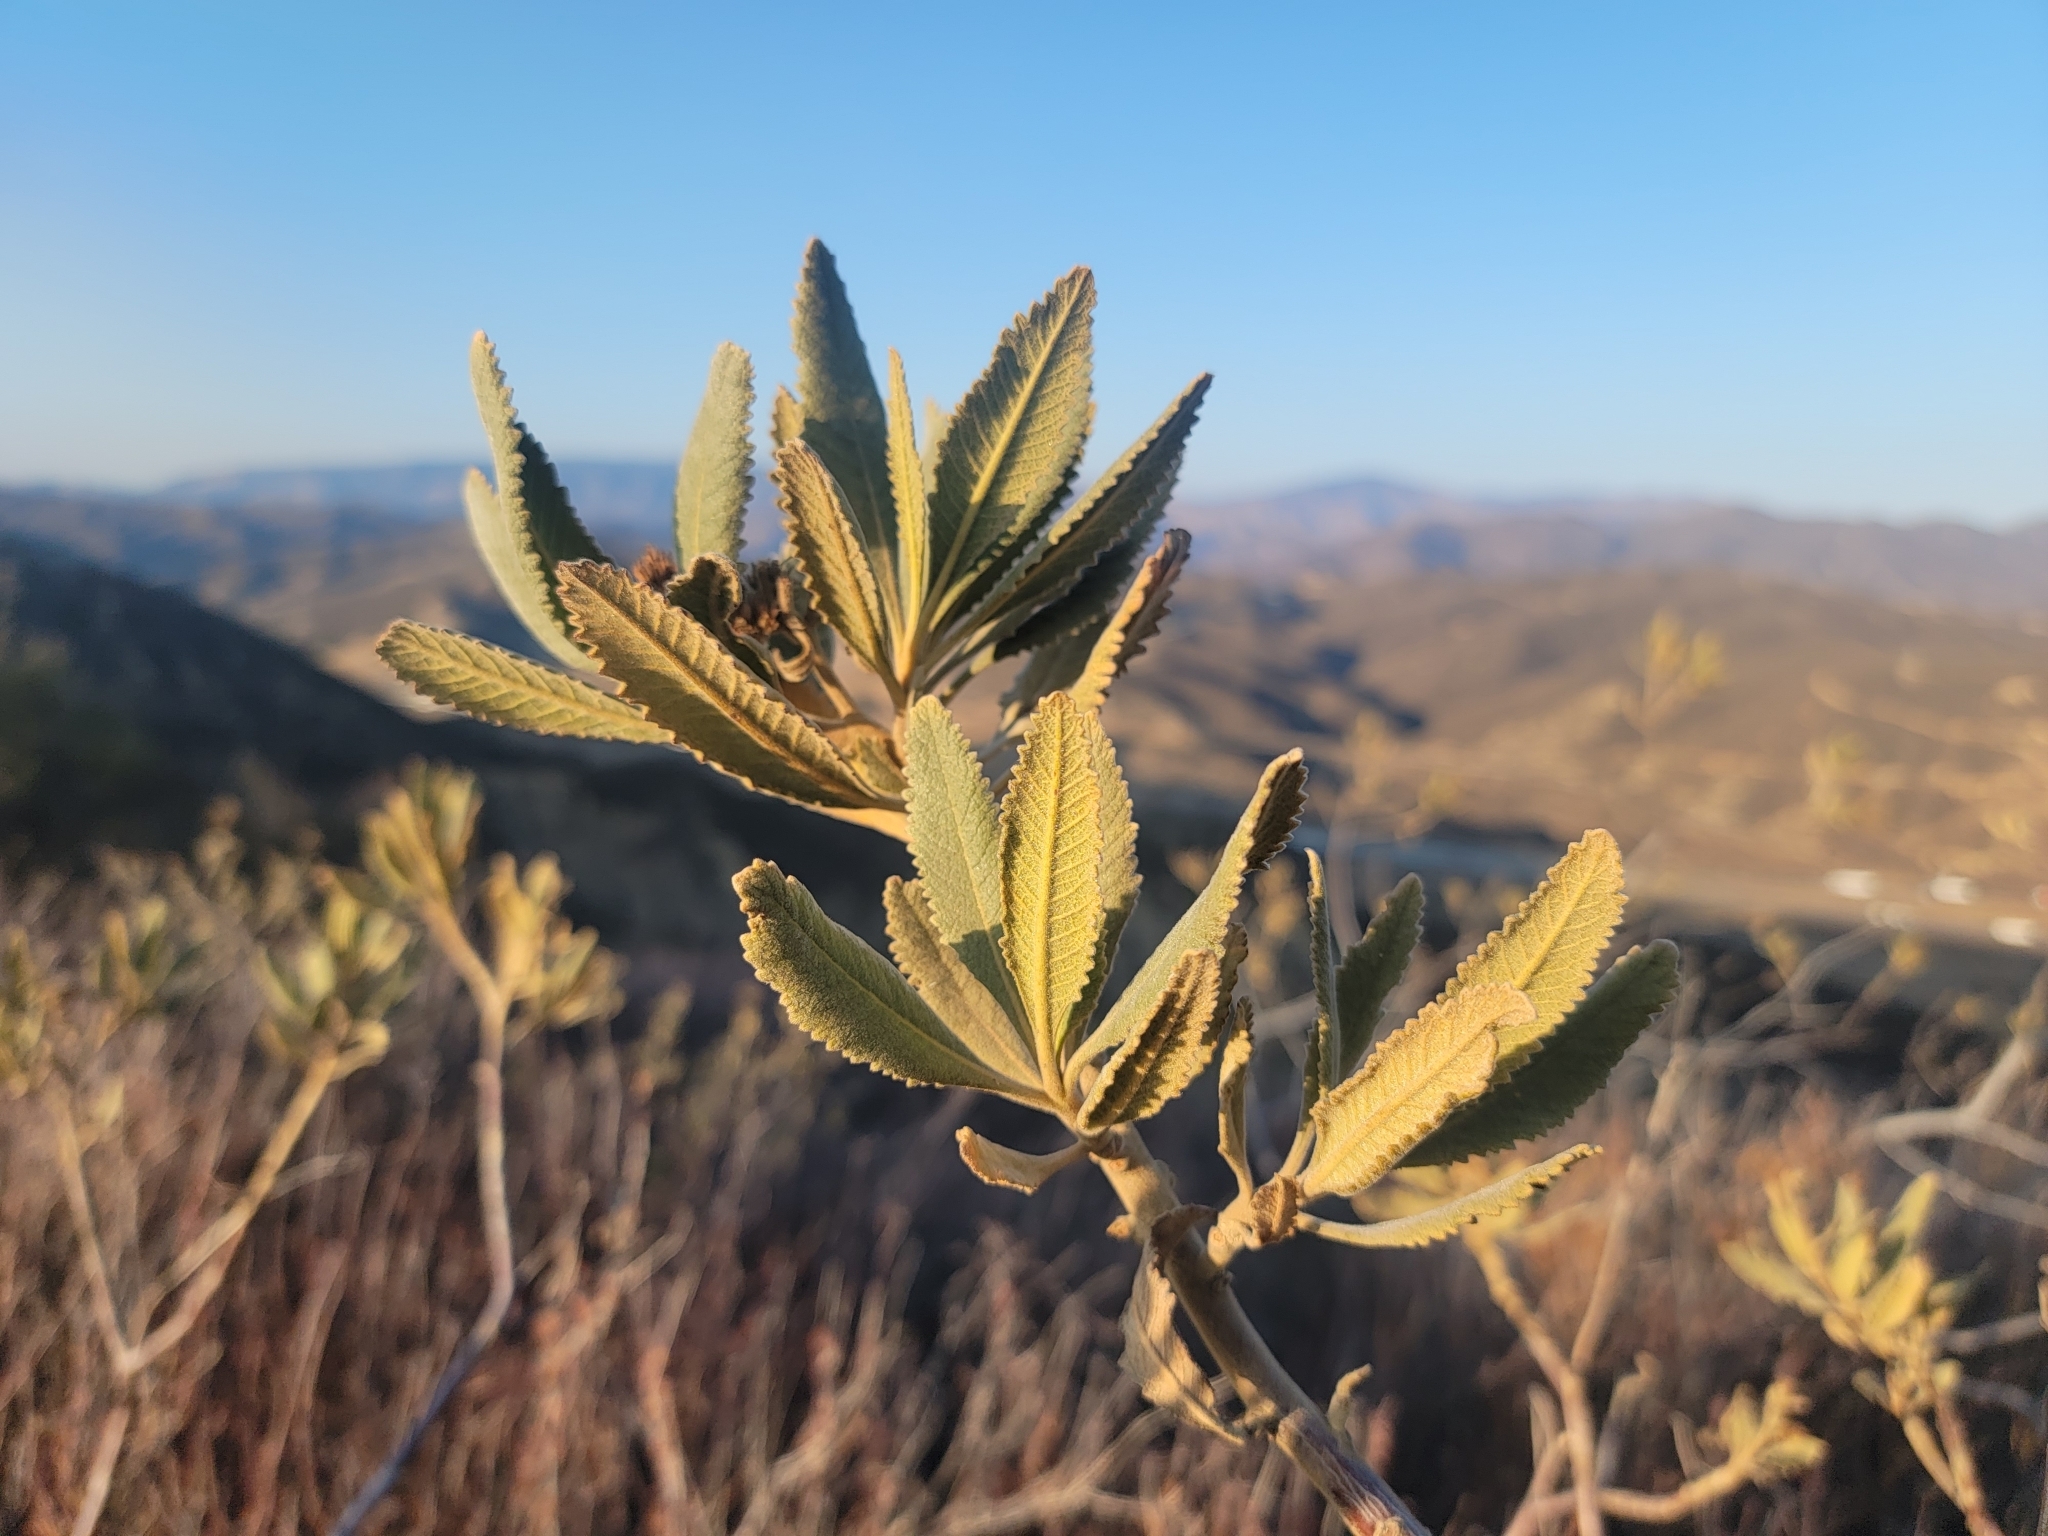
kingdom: Plantae
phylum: Tracheophyta
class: Magnoliopsida
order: Boraginales
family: Namaceae
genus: Eriodictyon
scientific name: Eriodictyon crassifolium
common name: Thick-leaf yerba-santa
